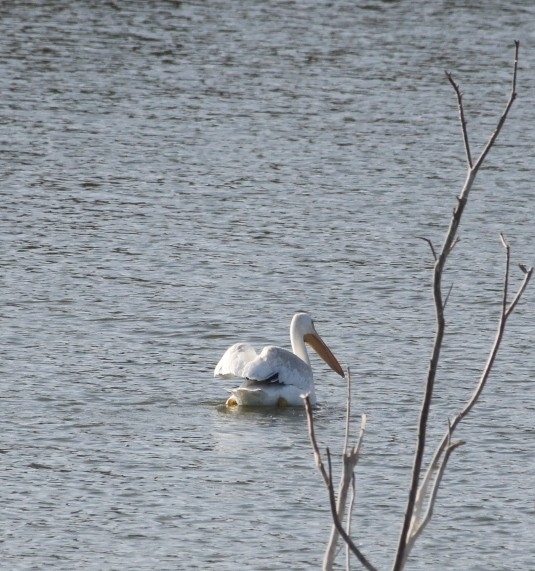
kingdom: Animalia
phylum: Chordata
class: Aves
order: Pelecaniformes
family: Pelecanidae
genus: Pelecanus
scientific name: Pelecanus erythrorhynchos
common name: American white pelican
